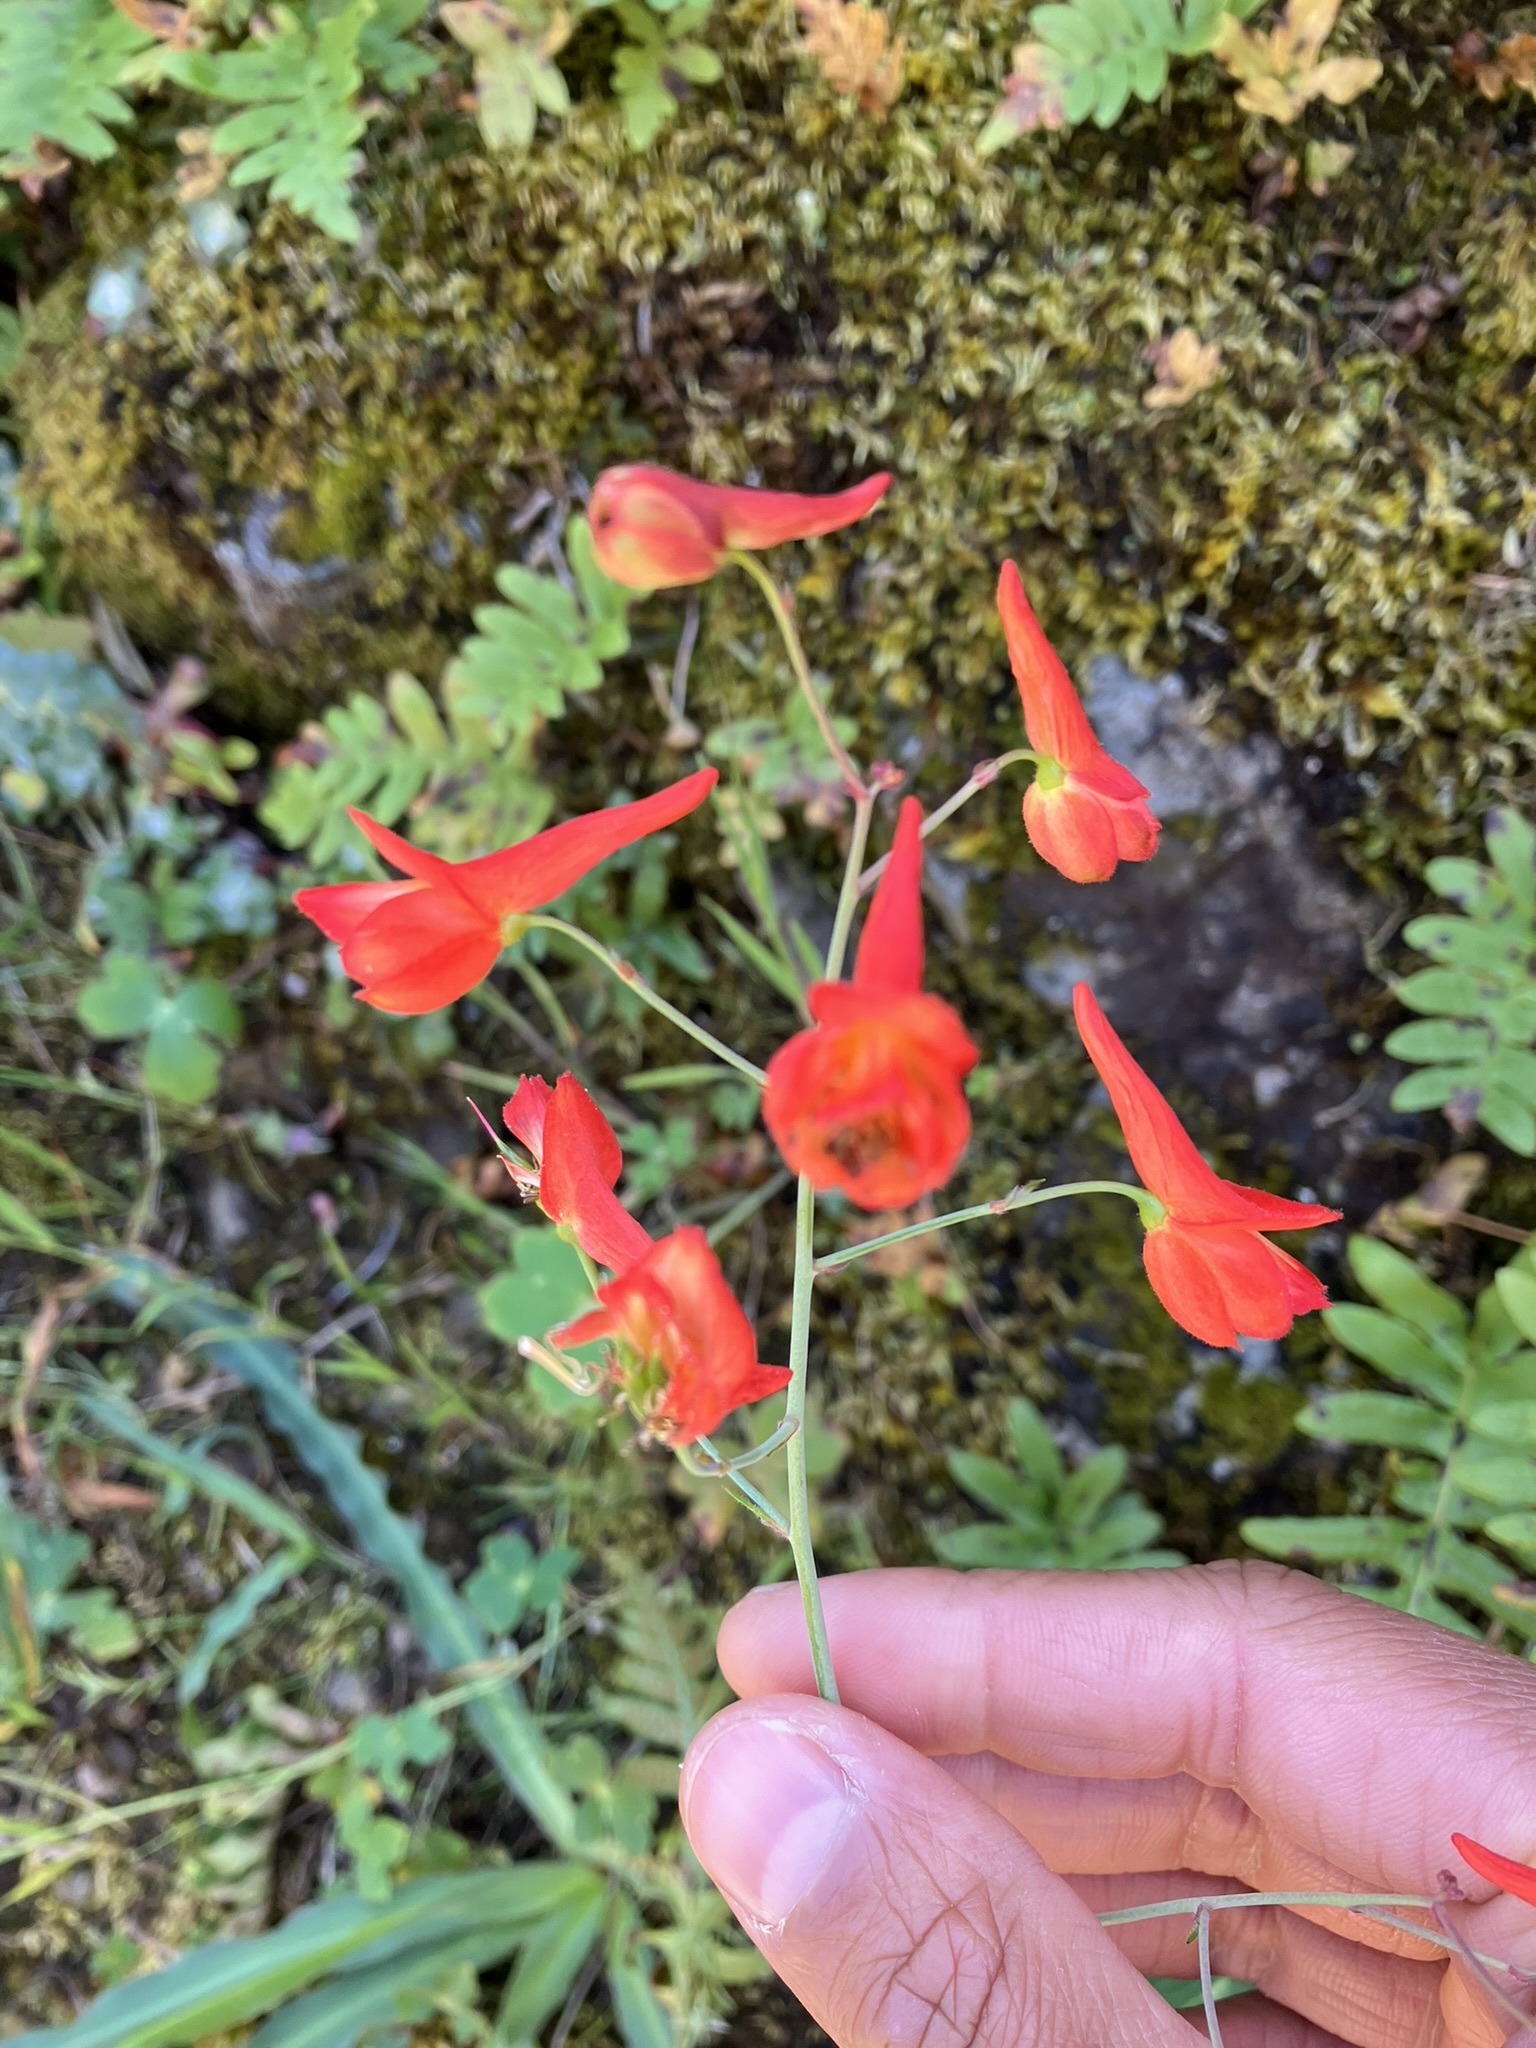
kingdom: Plantae
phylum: Tracheophyta
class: Magnoliopsida
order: Ranunculales
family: Ranunculaceae
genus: Delphinium
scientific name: Delphinium nudicaule
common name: Red larkspur
